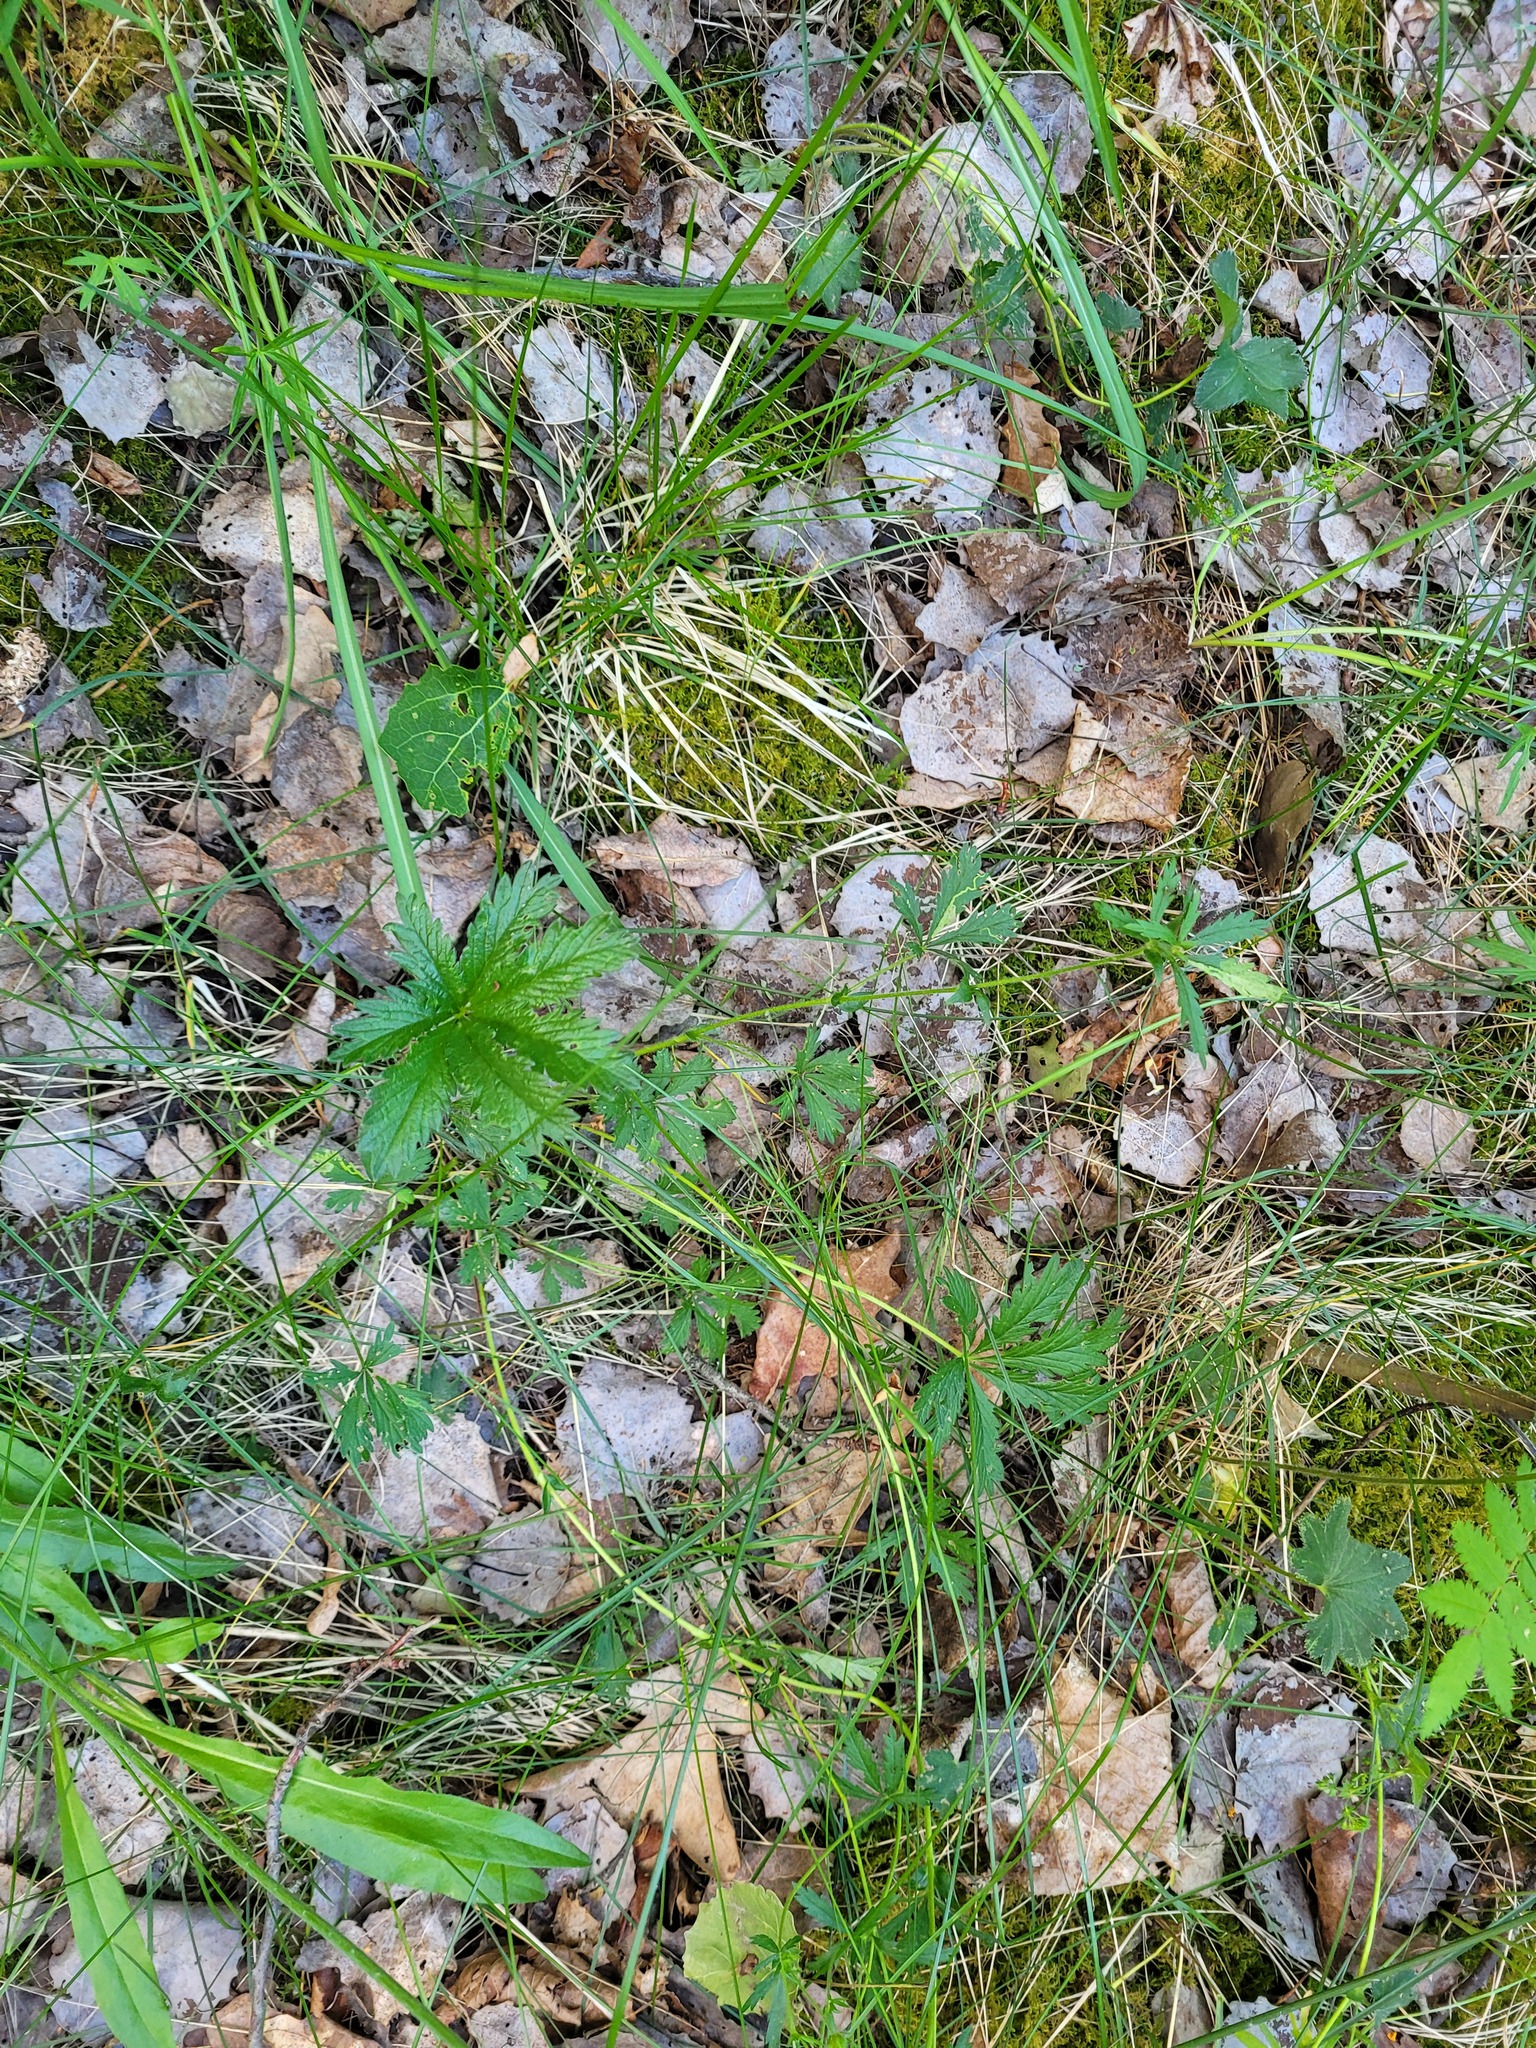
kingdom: Plantae
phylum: Tracheophyta
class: Magnoliopsida
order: Rosales
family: Rosaceae
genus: Potentilla
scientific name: Potentilla thuringiaca
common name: European cinquefoil
